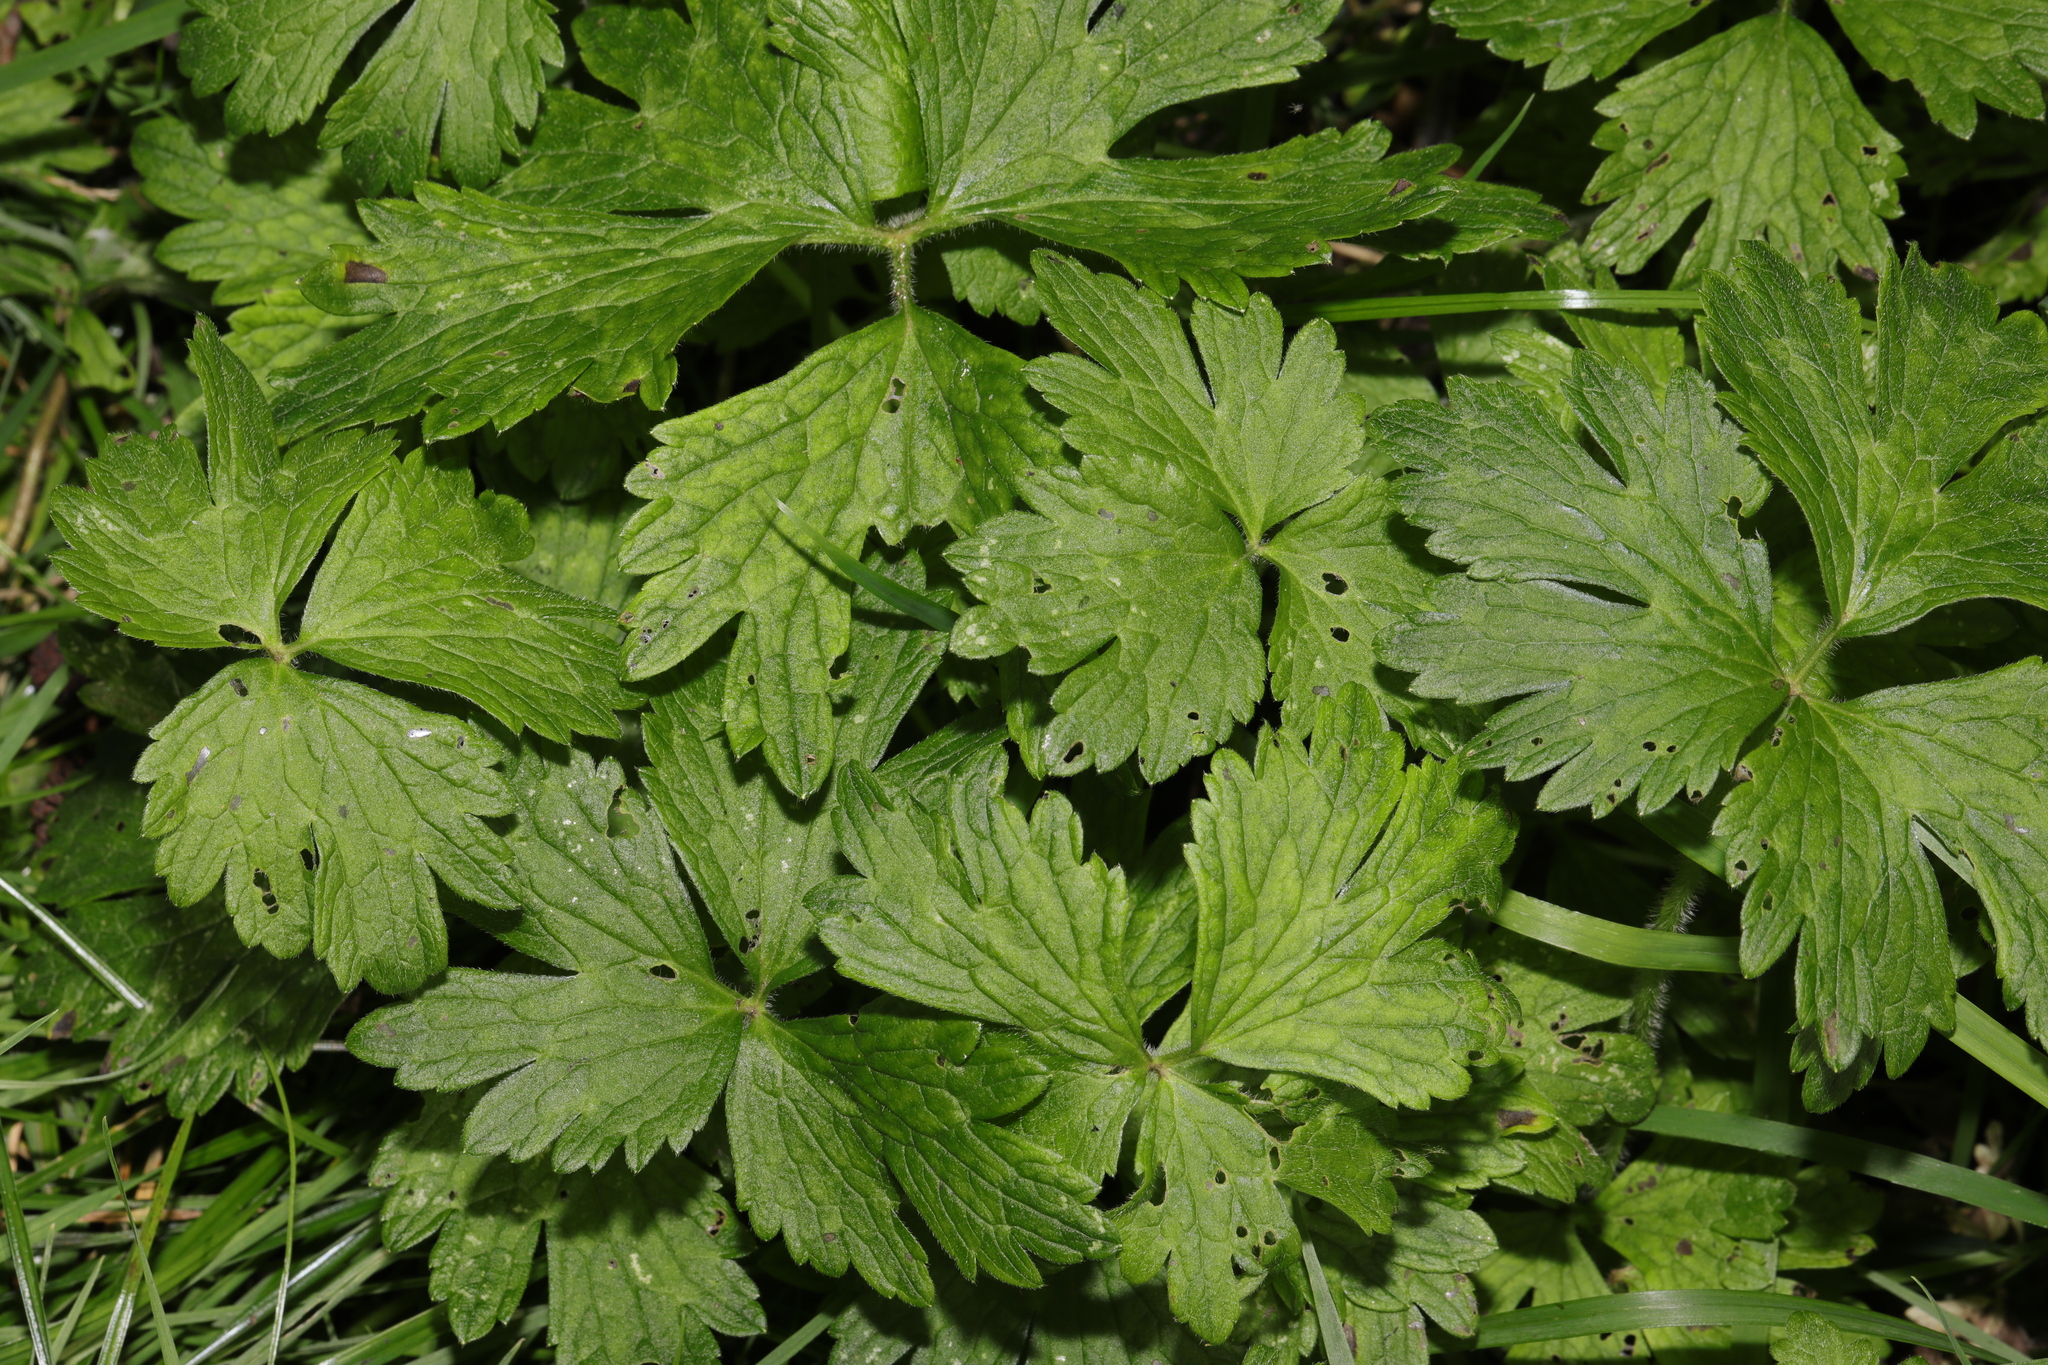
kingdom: Plantae
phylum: Tracheophyta
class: Magnoliopsida
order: Ranunculales
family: Ranunculaceae
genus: Ranunculus
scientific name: Ranunculus repens
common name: Creeping buttercup
